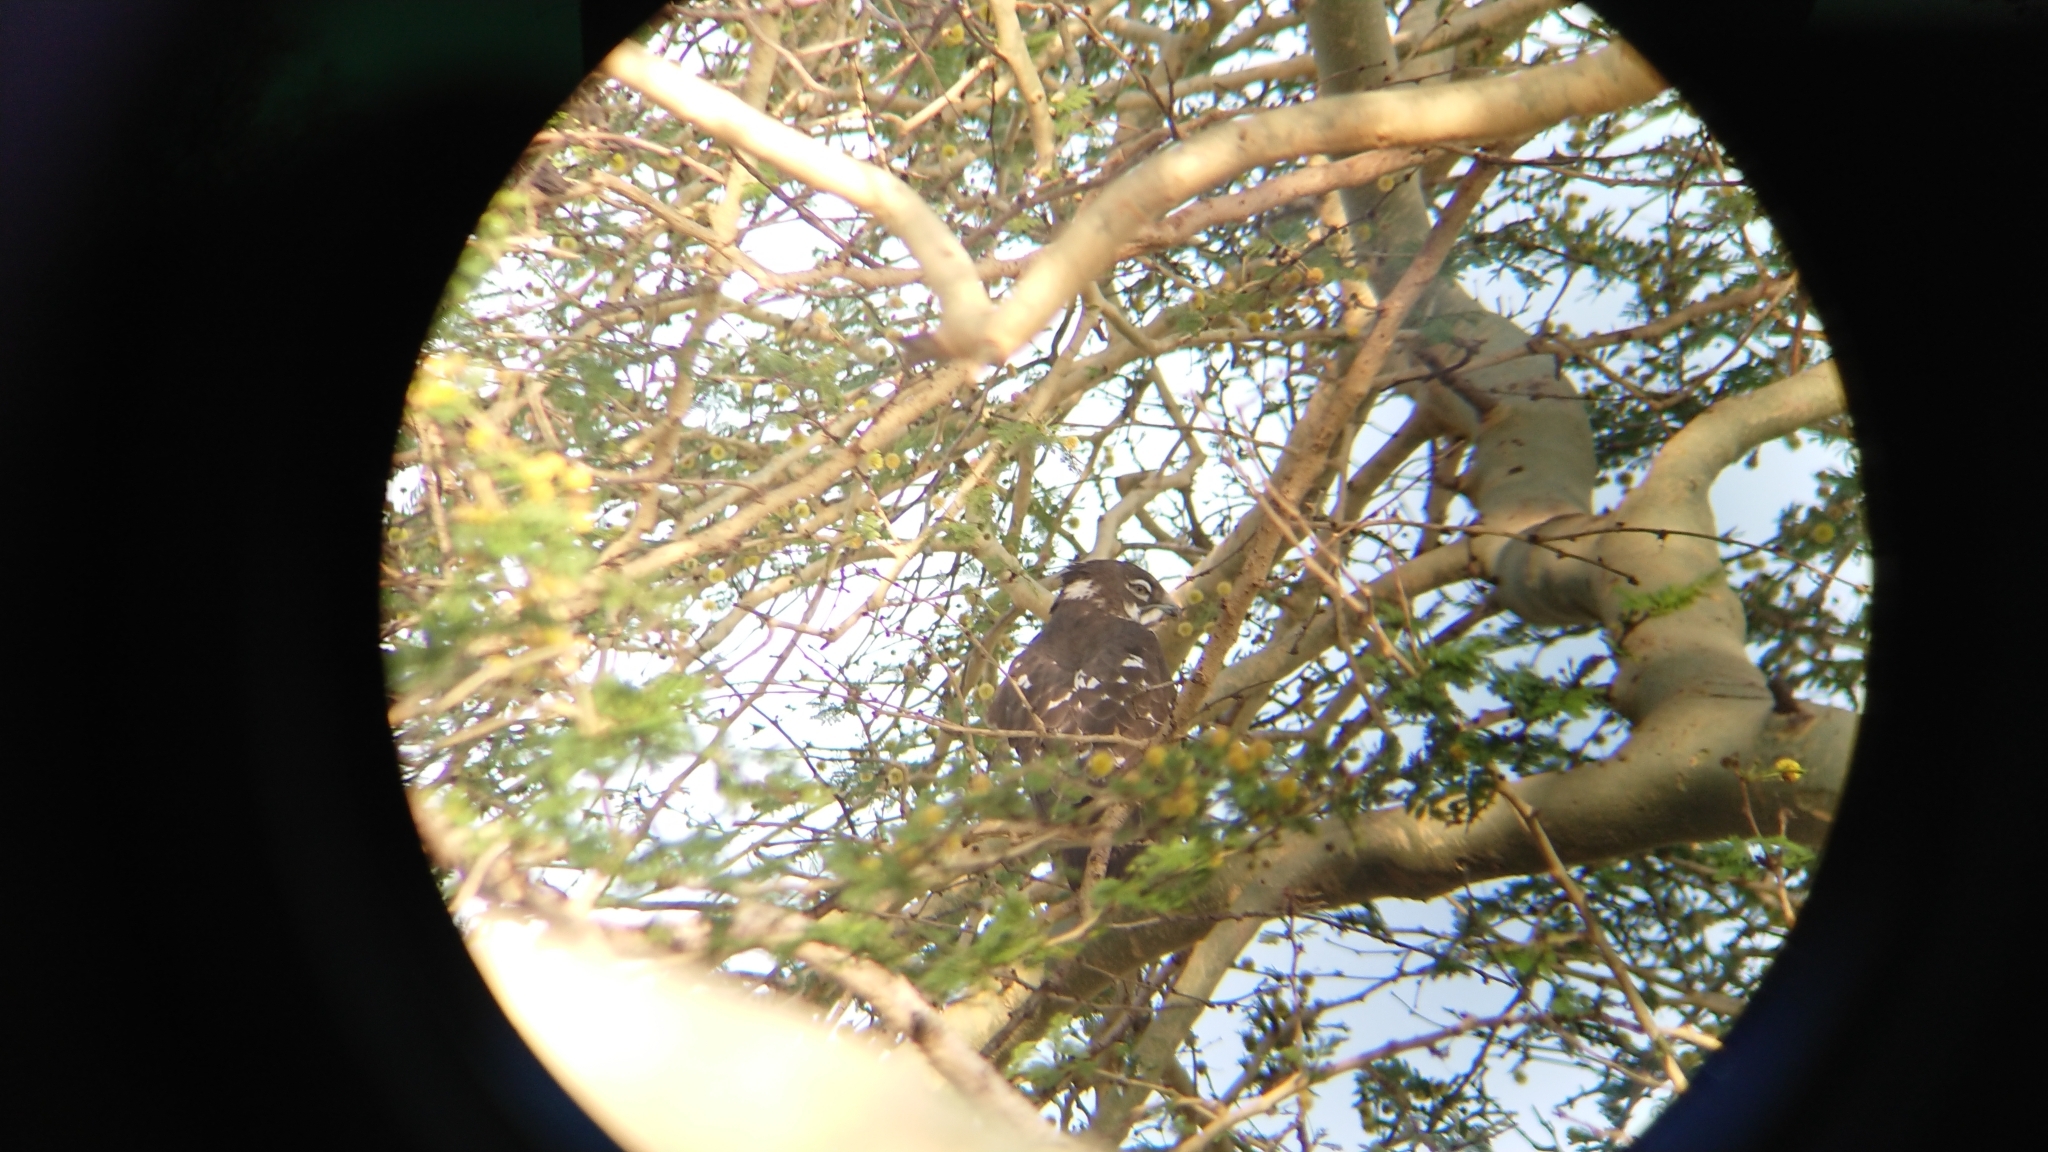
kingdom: Animalia
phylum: Chordata
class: Aves
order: Accipitriformes
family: Accipitridae
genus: Macheiramphus
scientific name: Macheiramphus alcinus
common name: Bat hawk
